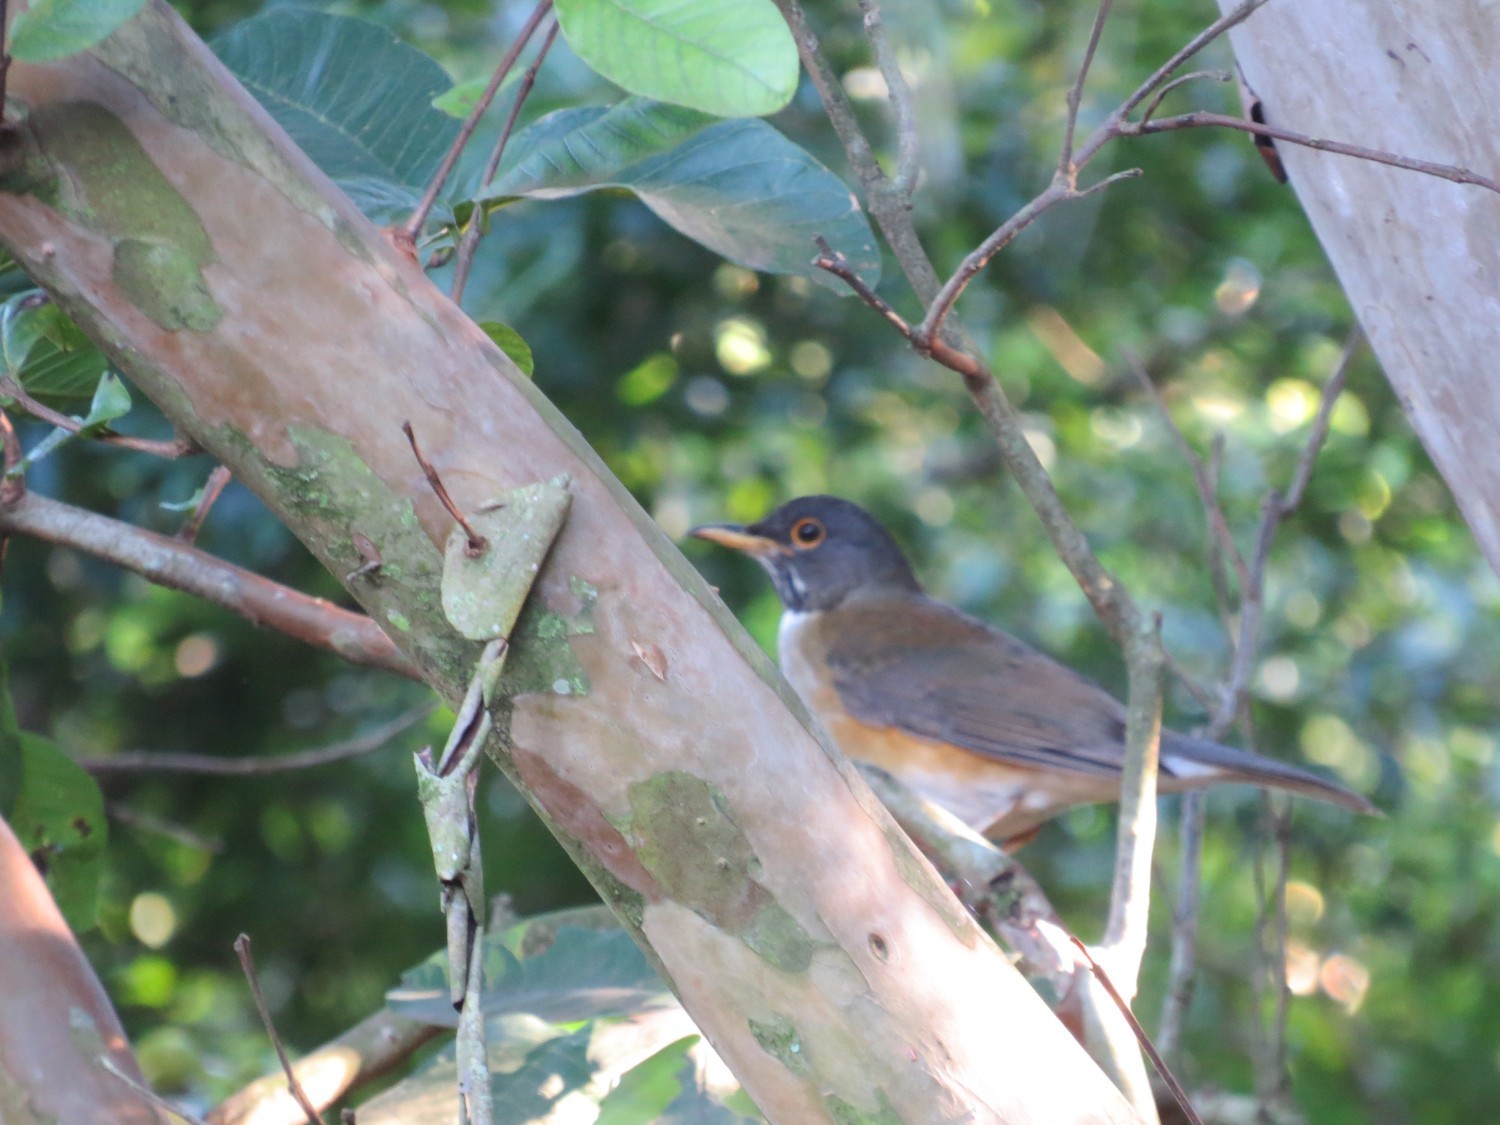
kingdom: Animalia
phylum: Chordata
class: Aves
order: Passeriformes
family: Turdidae
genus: Turdus
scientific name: Turdus albicollis
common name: White-necked thrush
